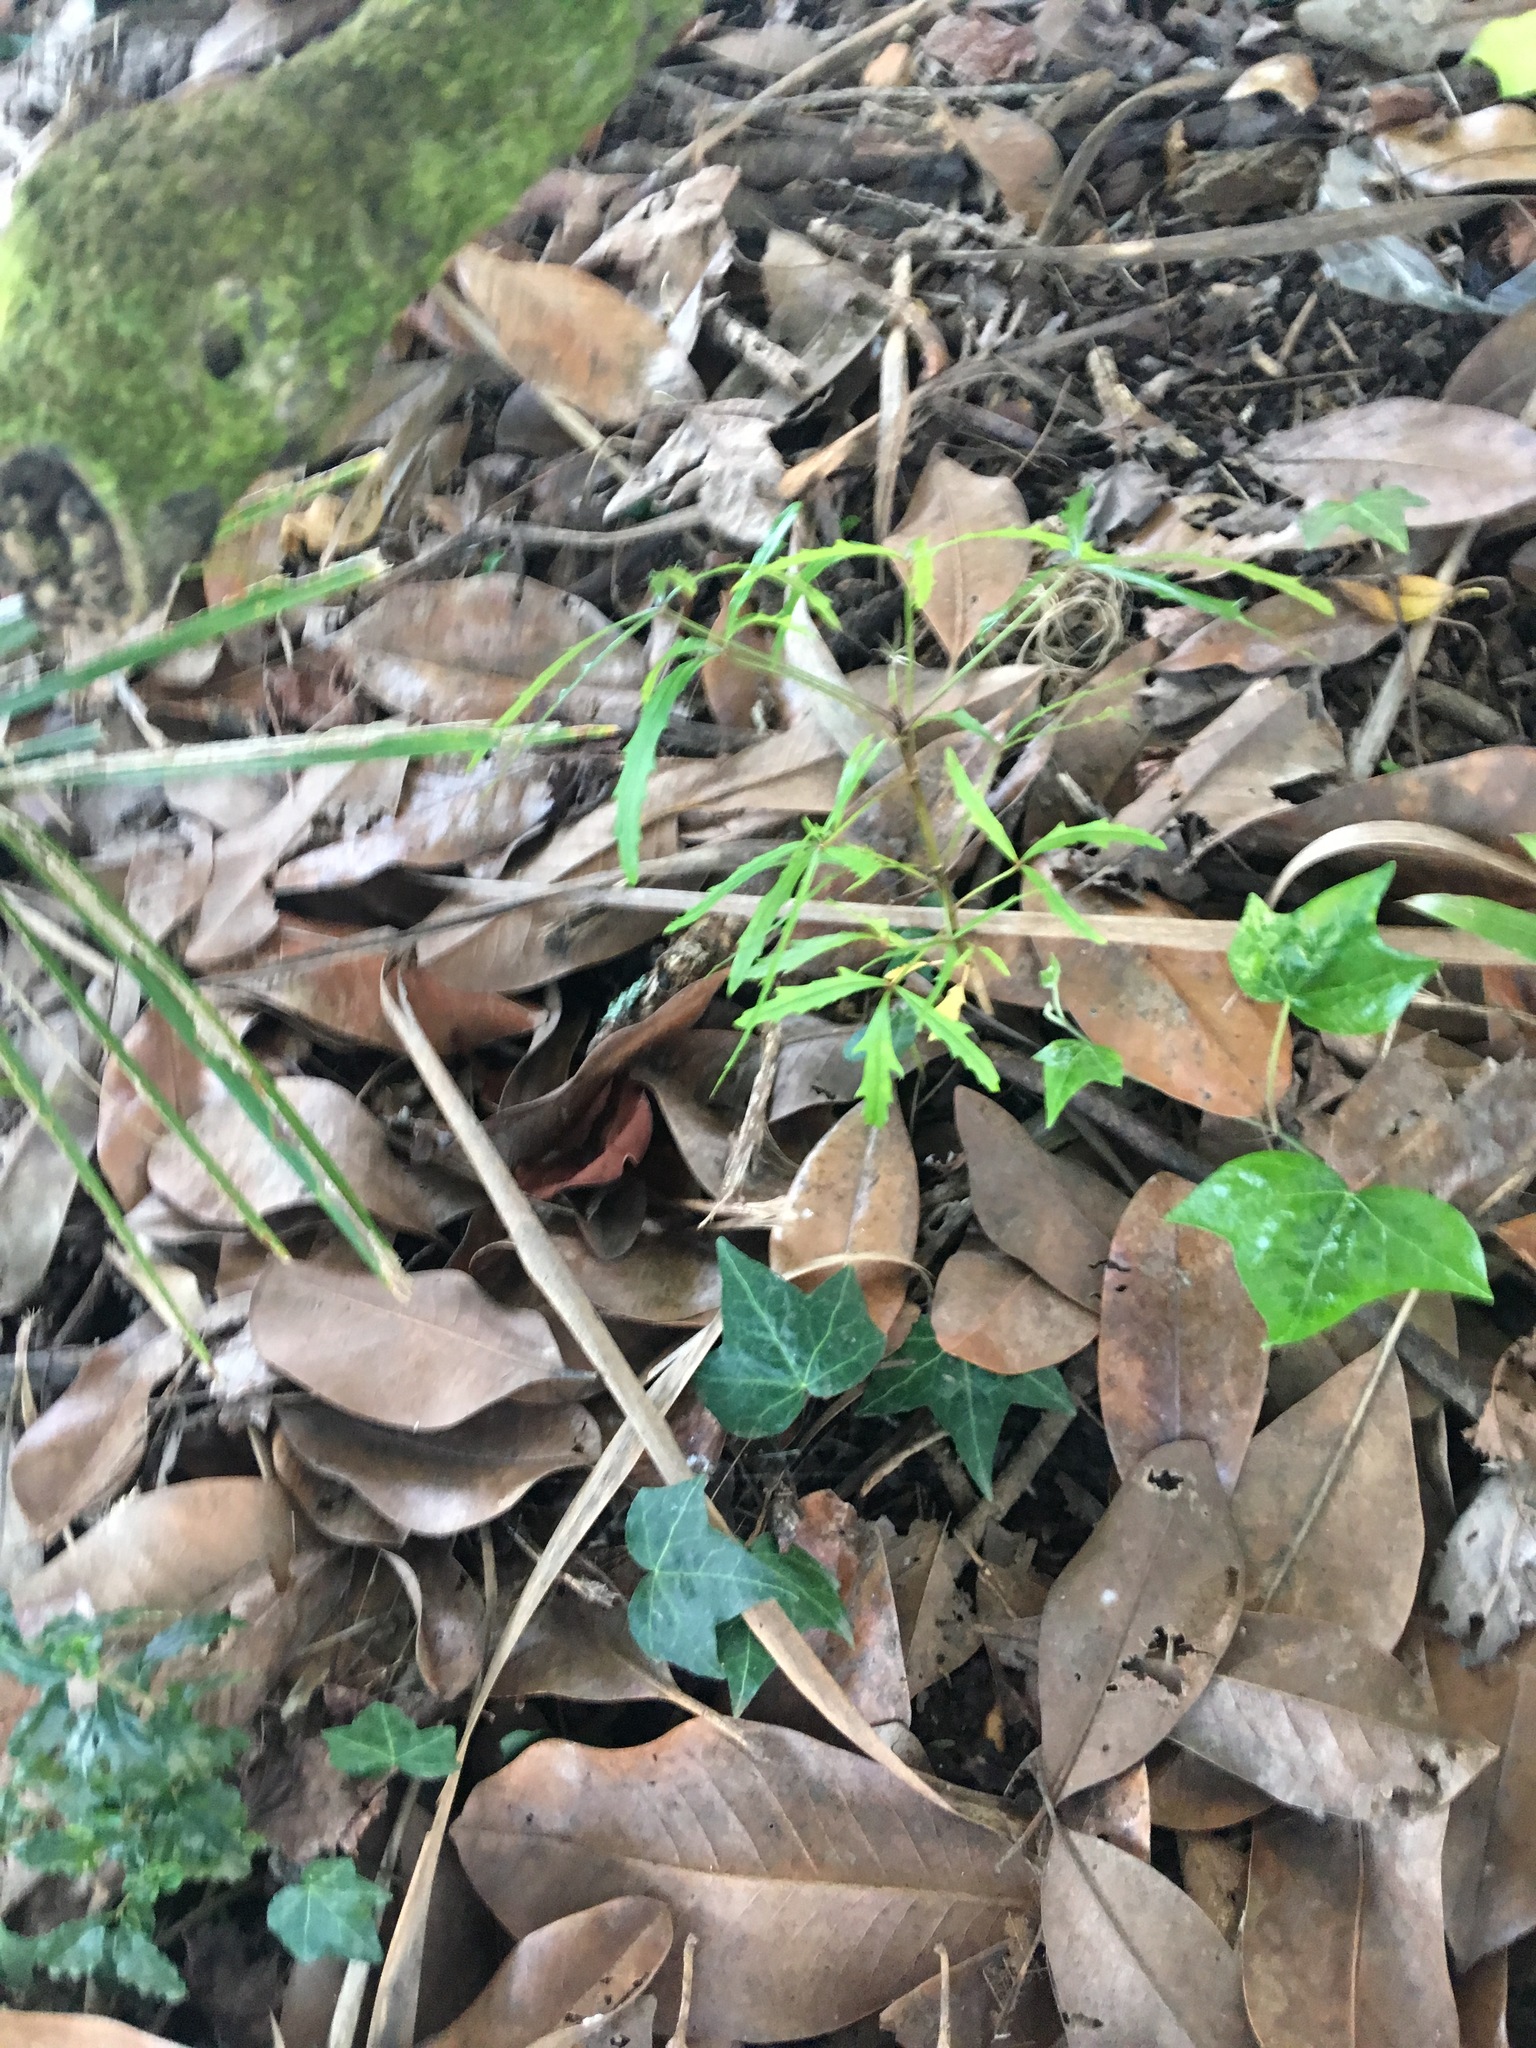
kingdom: Plantae
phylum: Tracheophyta
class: Magnoliopsida
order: Apiales
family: Araliaceae
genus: Pseudopanax
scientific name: Pseudopanax
